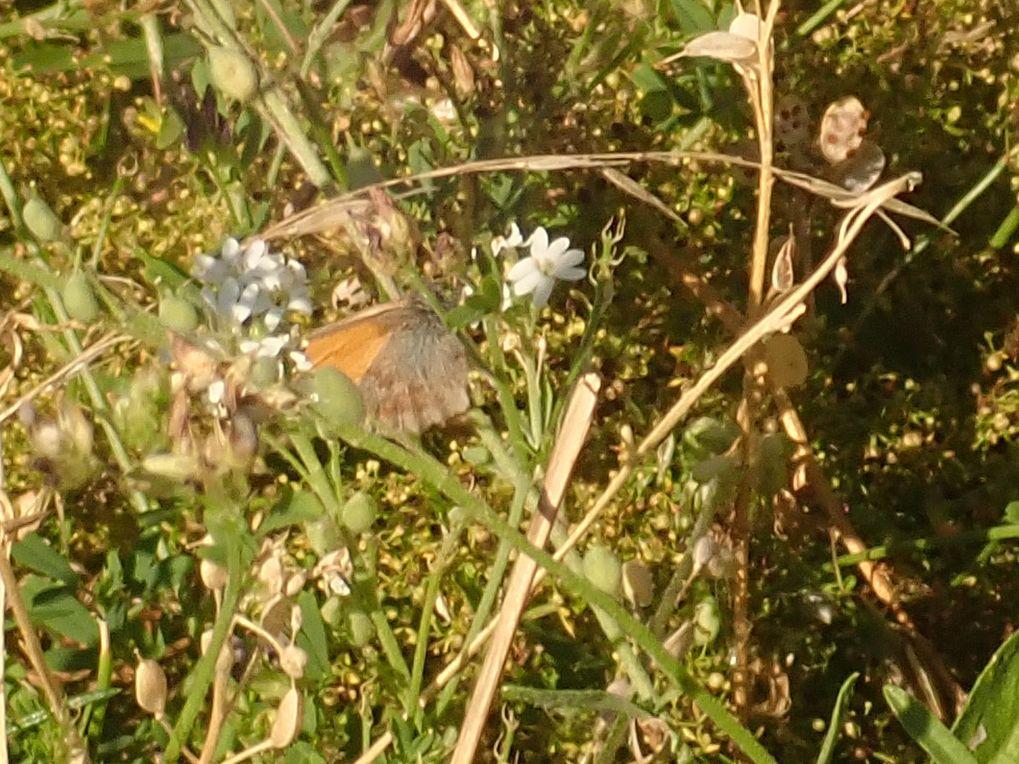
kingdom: Animalia
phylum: Arthropoda
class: Insecta
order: Lepidoptera
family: Nymphalidae
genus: Coenonympha
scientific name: Coenonympha pamphilus
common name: Small heath
